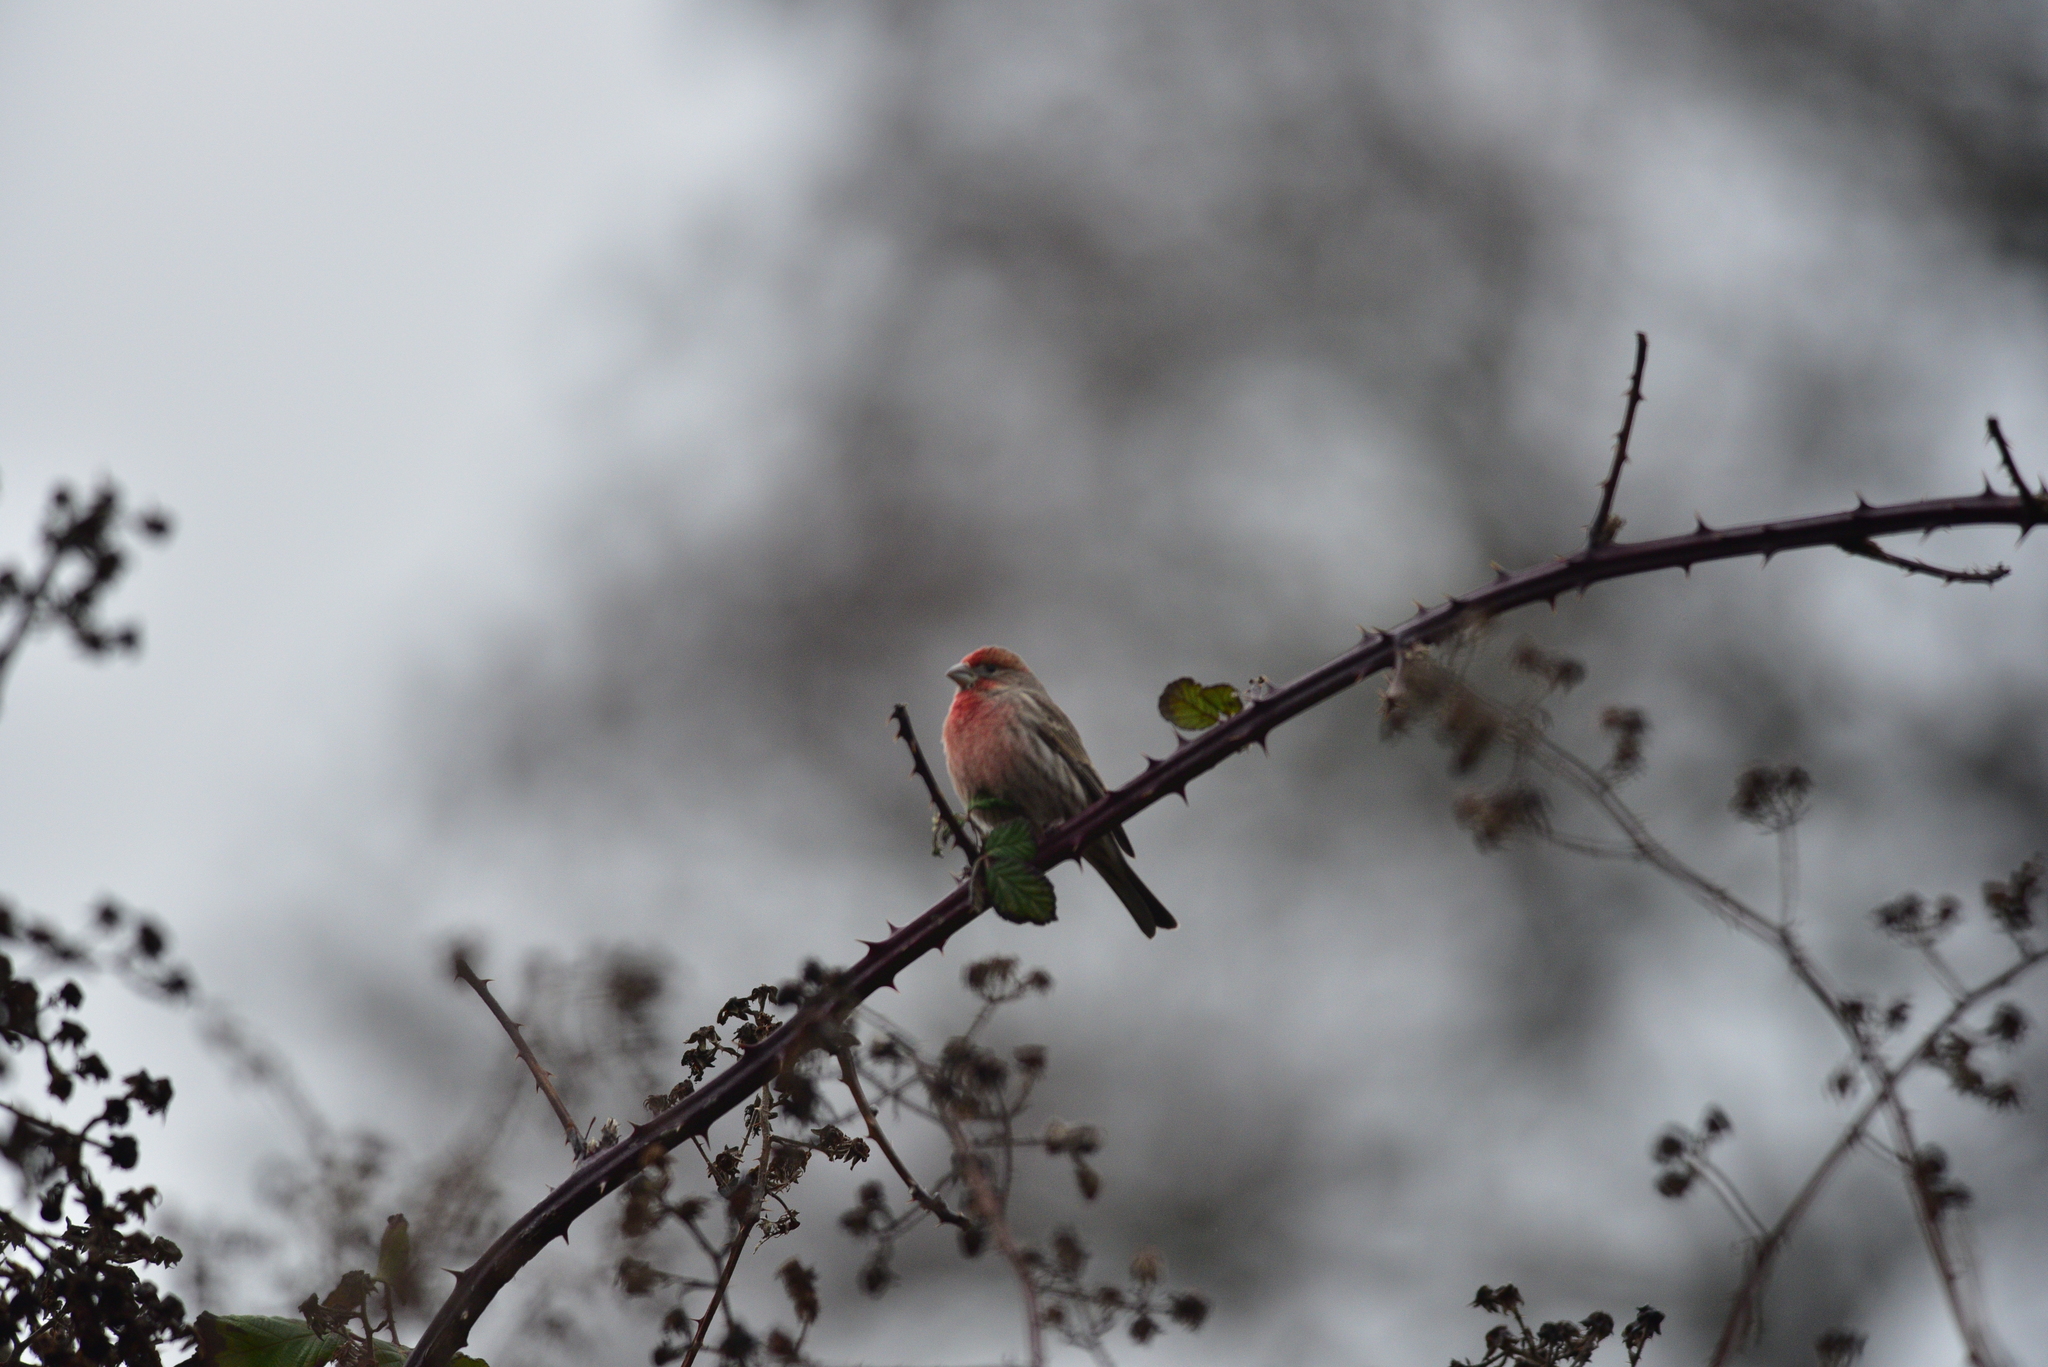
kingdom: Animalia
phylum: Chordata
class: Aves
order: Passeriformes
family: Fringillidae
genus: Haemorhous
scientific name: Haemorhous mexicanus
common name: House finch
